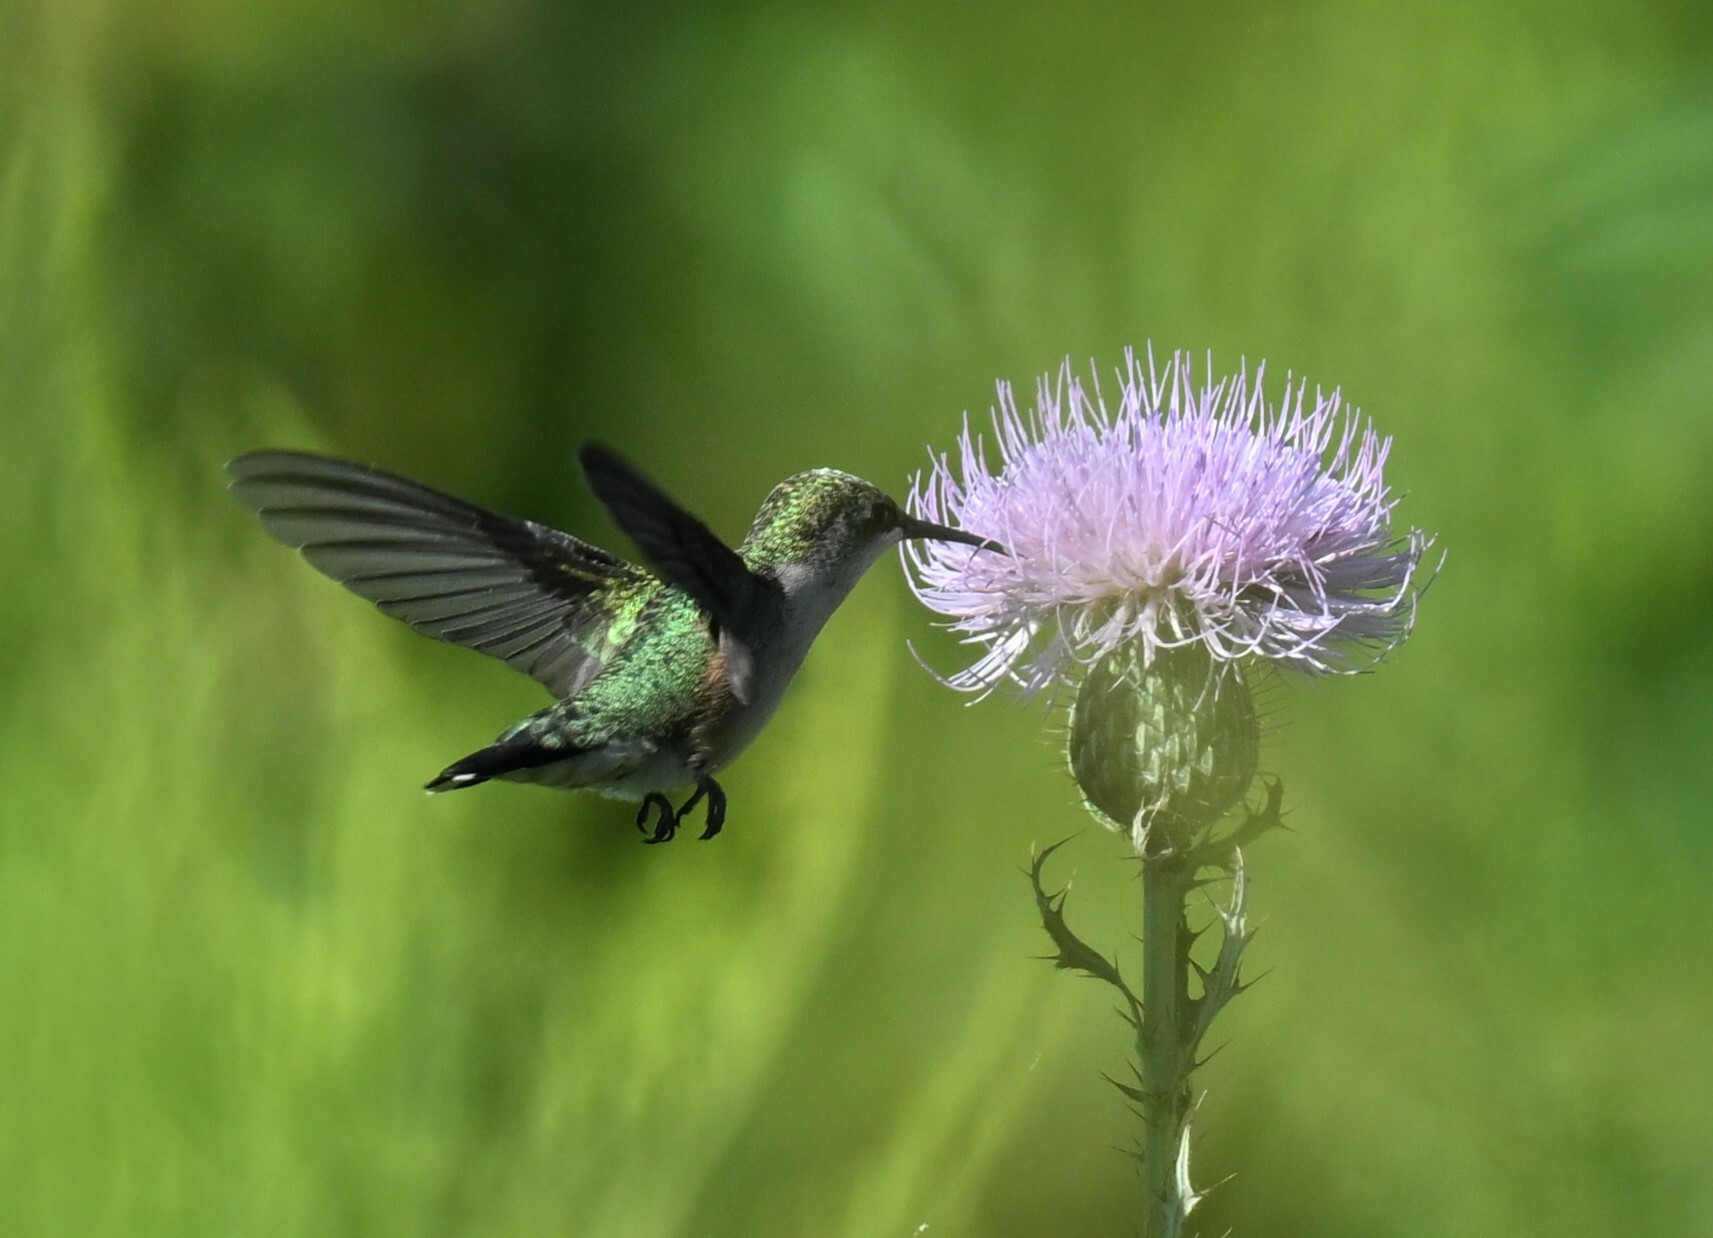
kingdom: Animalia
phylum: Chordata
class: Aves
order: Apodiformes
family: Trochilidae
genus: Archilochus
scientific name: Archilochus colubris
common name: Ruby-throated hummingbird
